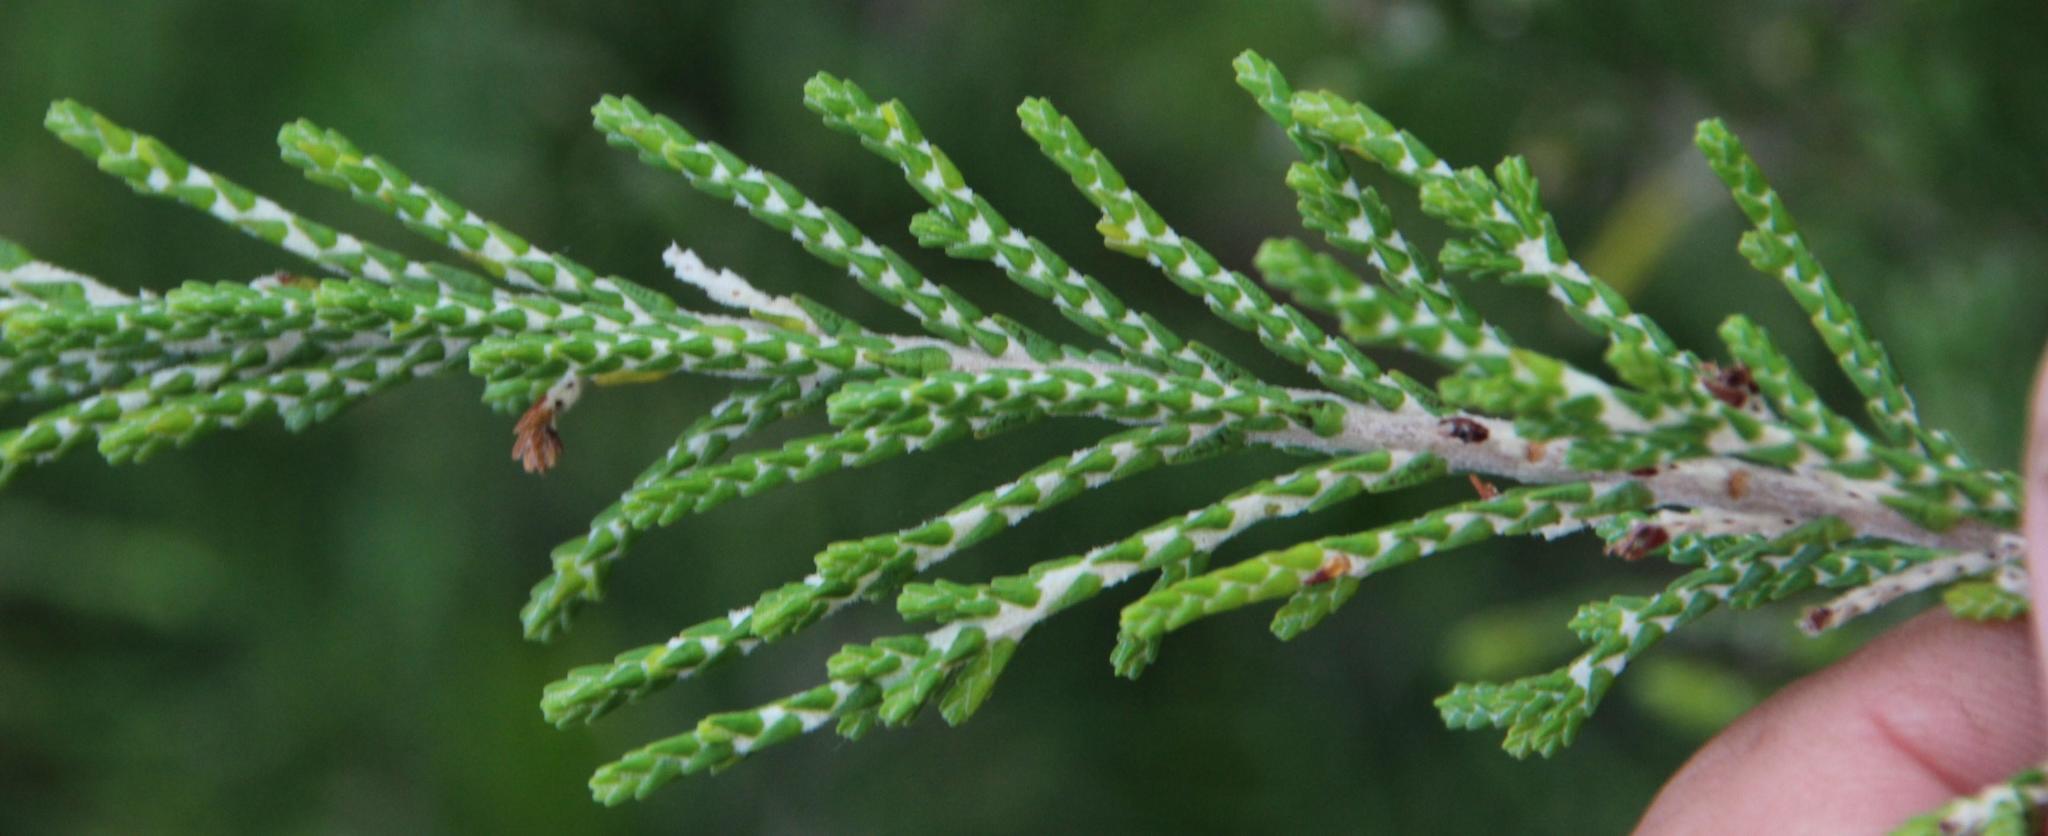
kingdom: Plantae
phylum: Tracheophyta
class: Magnoliopsida
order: Malvales
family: Thymelaeaceae
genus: Passerina
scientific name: Passerina rigida
